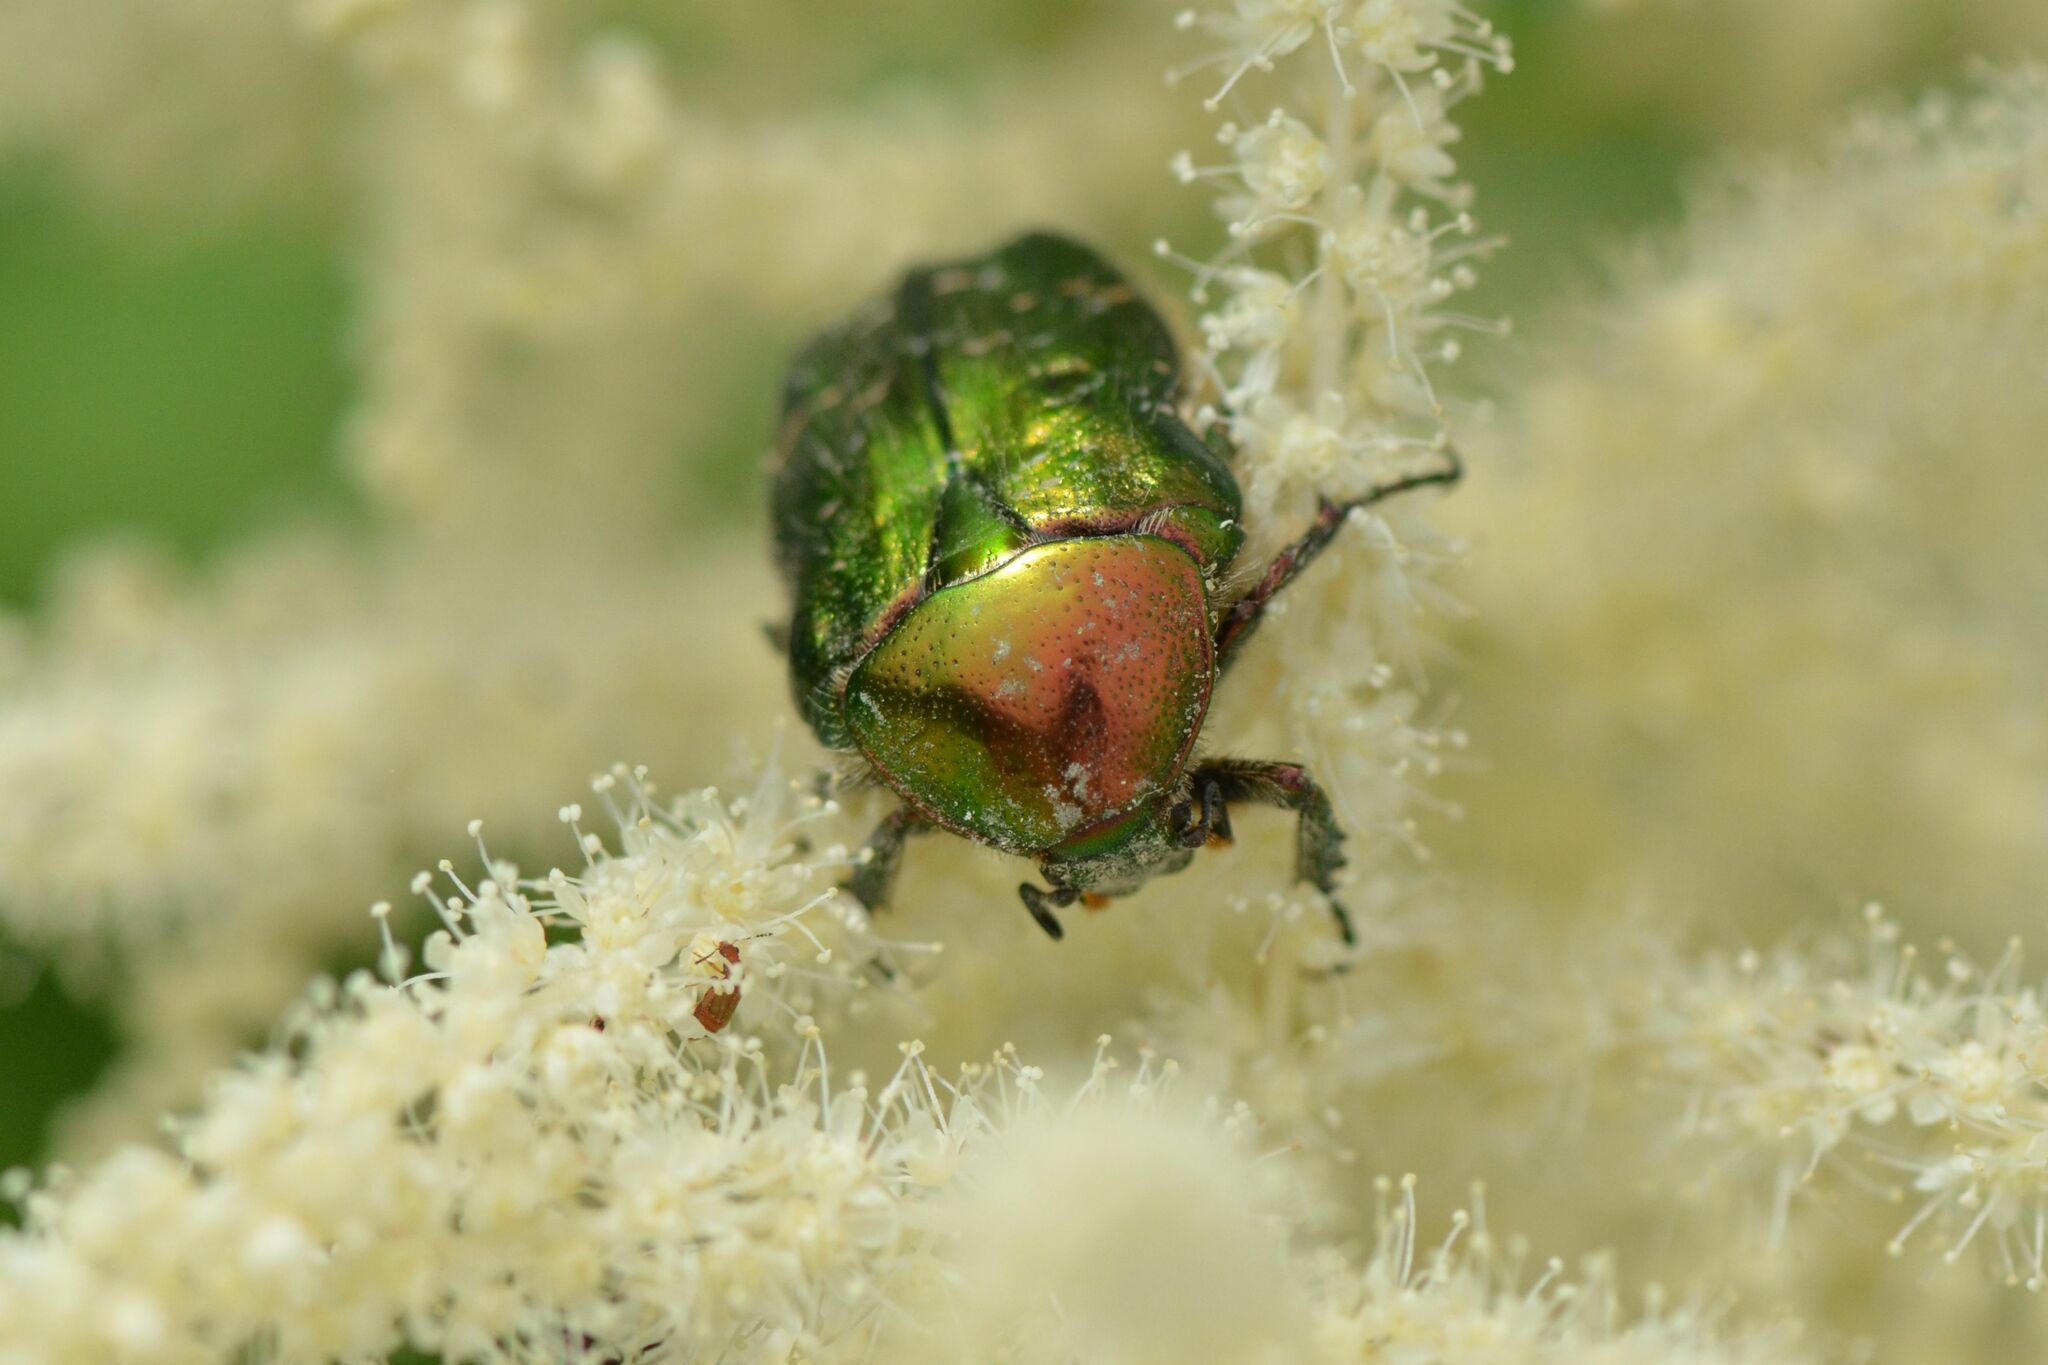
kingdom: Animalia
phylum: Arthropoda
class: Insecta
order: Coleoptera
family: Scarabaeidae
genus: Cetonia
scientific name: Cetonia aurata
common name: Rose chafer
